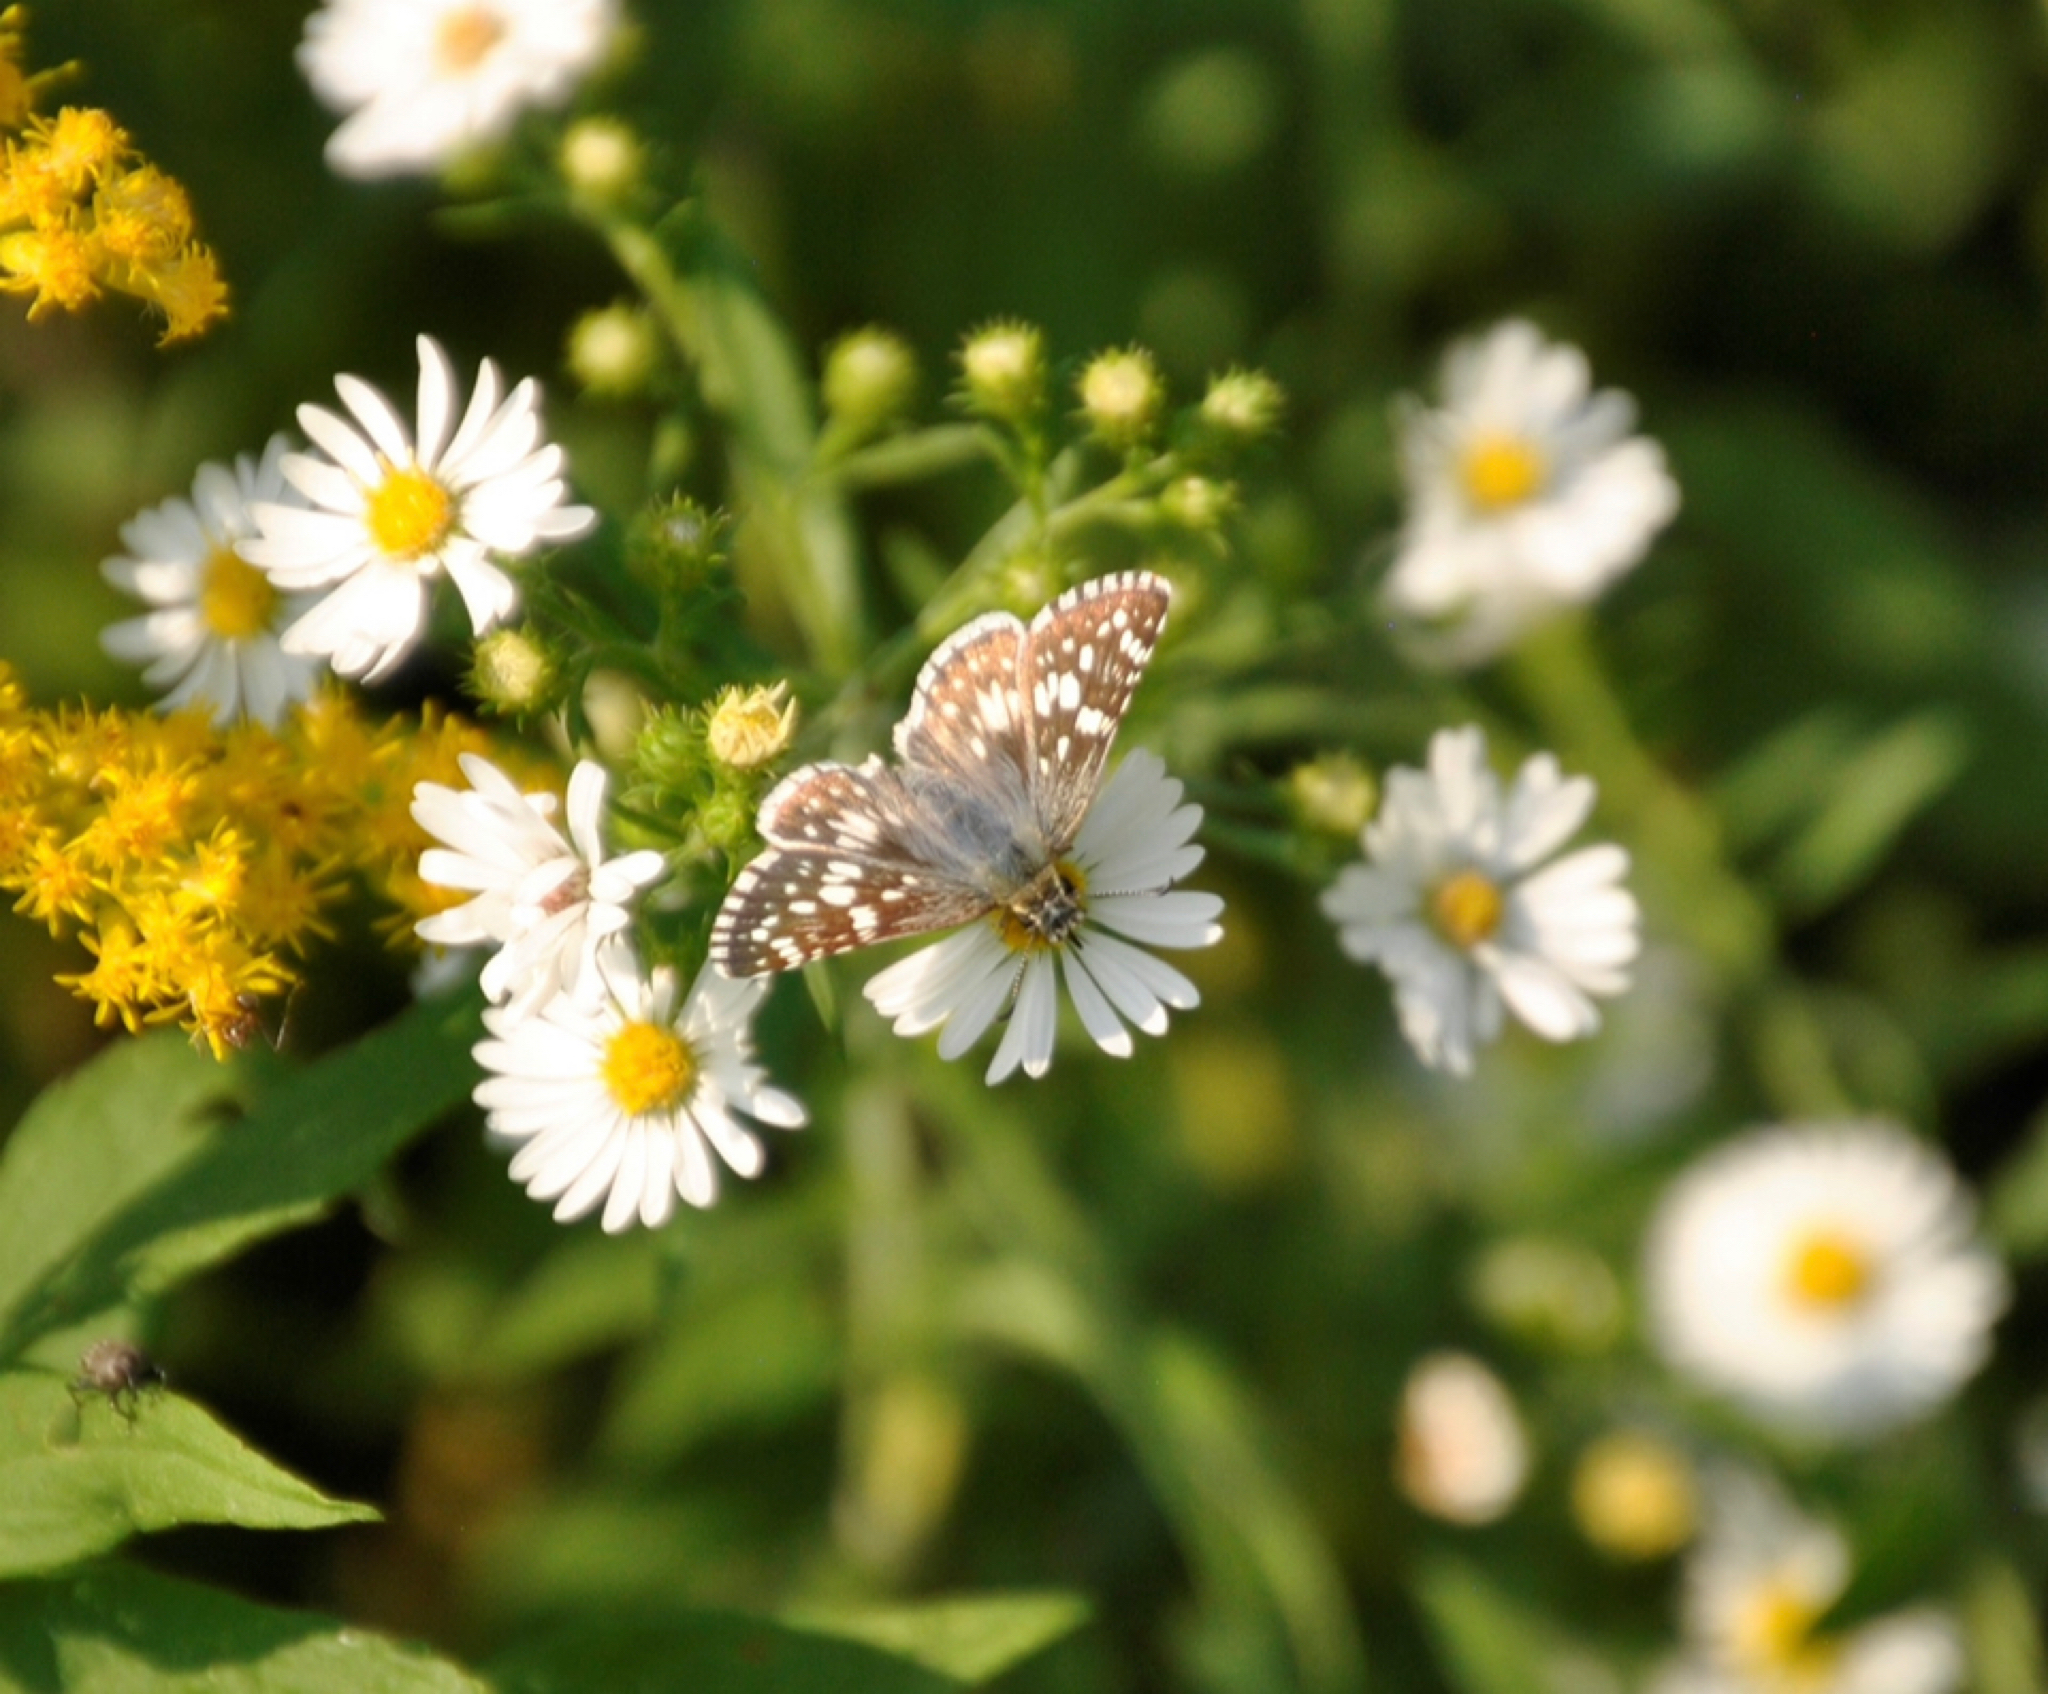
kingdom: Animalia
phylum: Arthropoda
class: Insecta
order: Lepidoptera
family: Hesperiidae
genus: Burnsius
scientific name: Burnsius communis
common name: Common checkered-skipper
